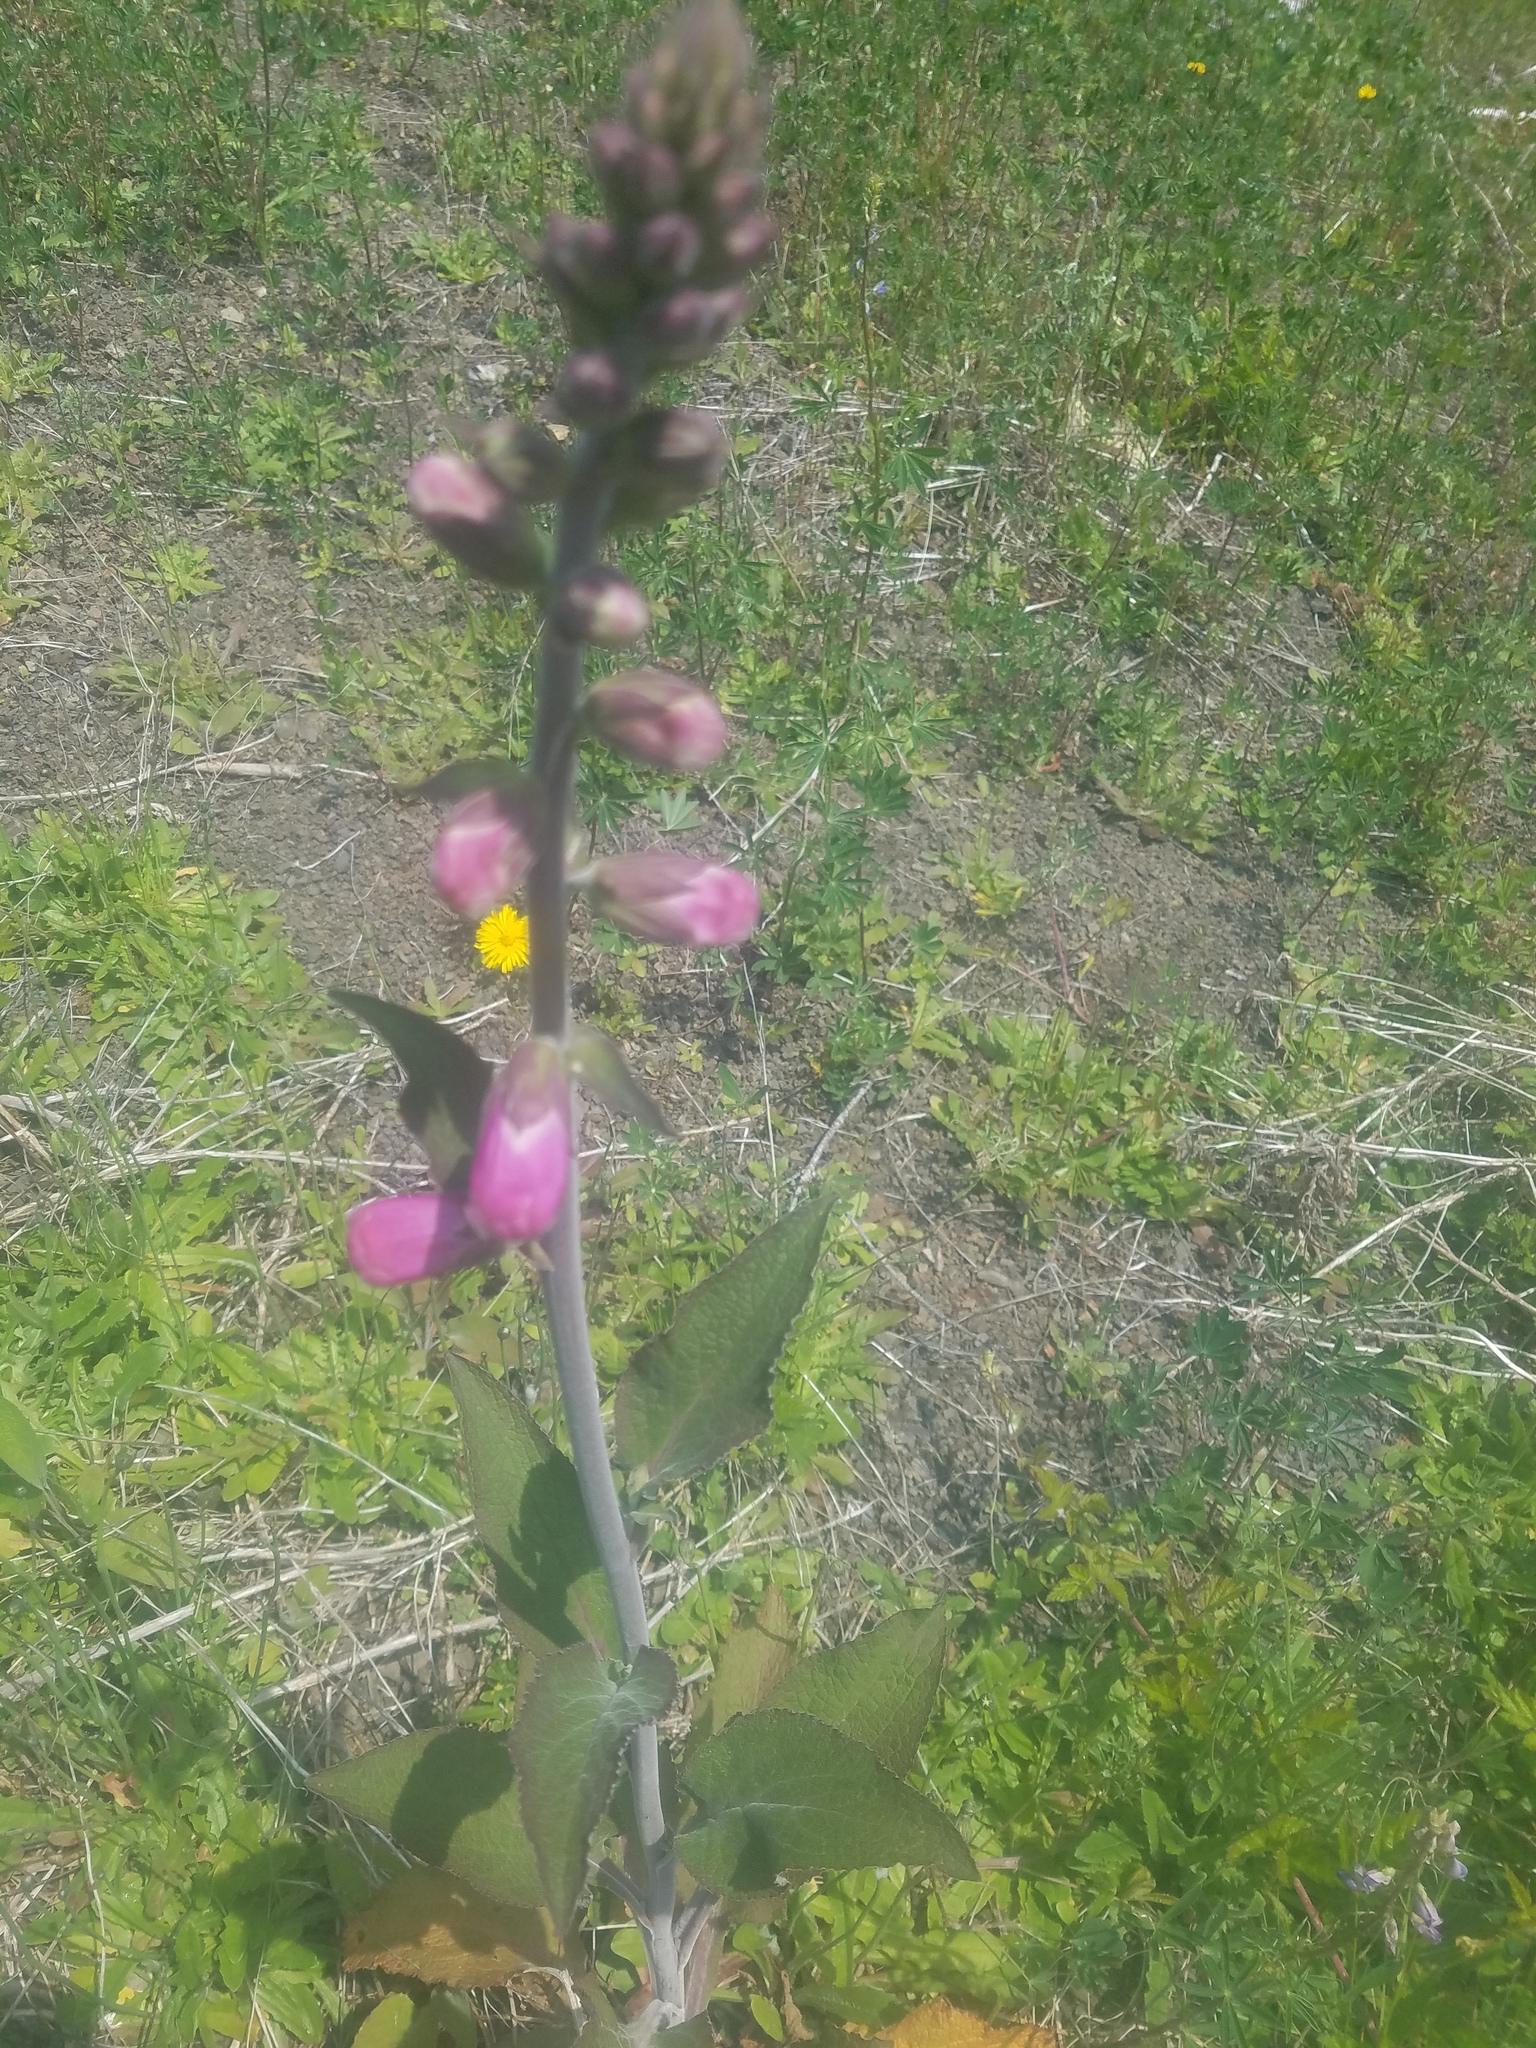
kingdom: Plantae
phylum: Tracheophyta
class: Magnoliopsida
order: Lamiales
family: Plantaginaceae
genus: Digitalis
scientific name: Digitalis purpurea
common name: Foxglove
